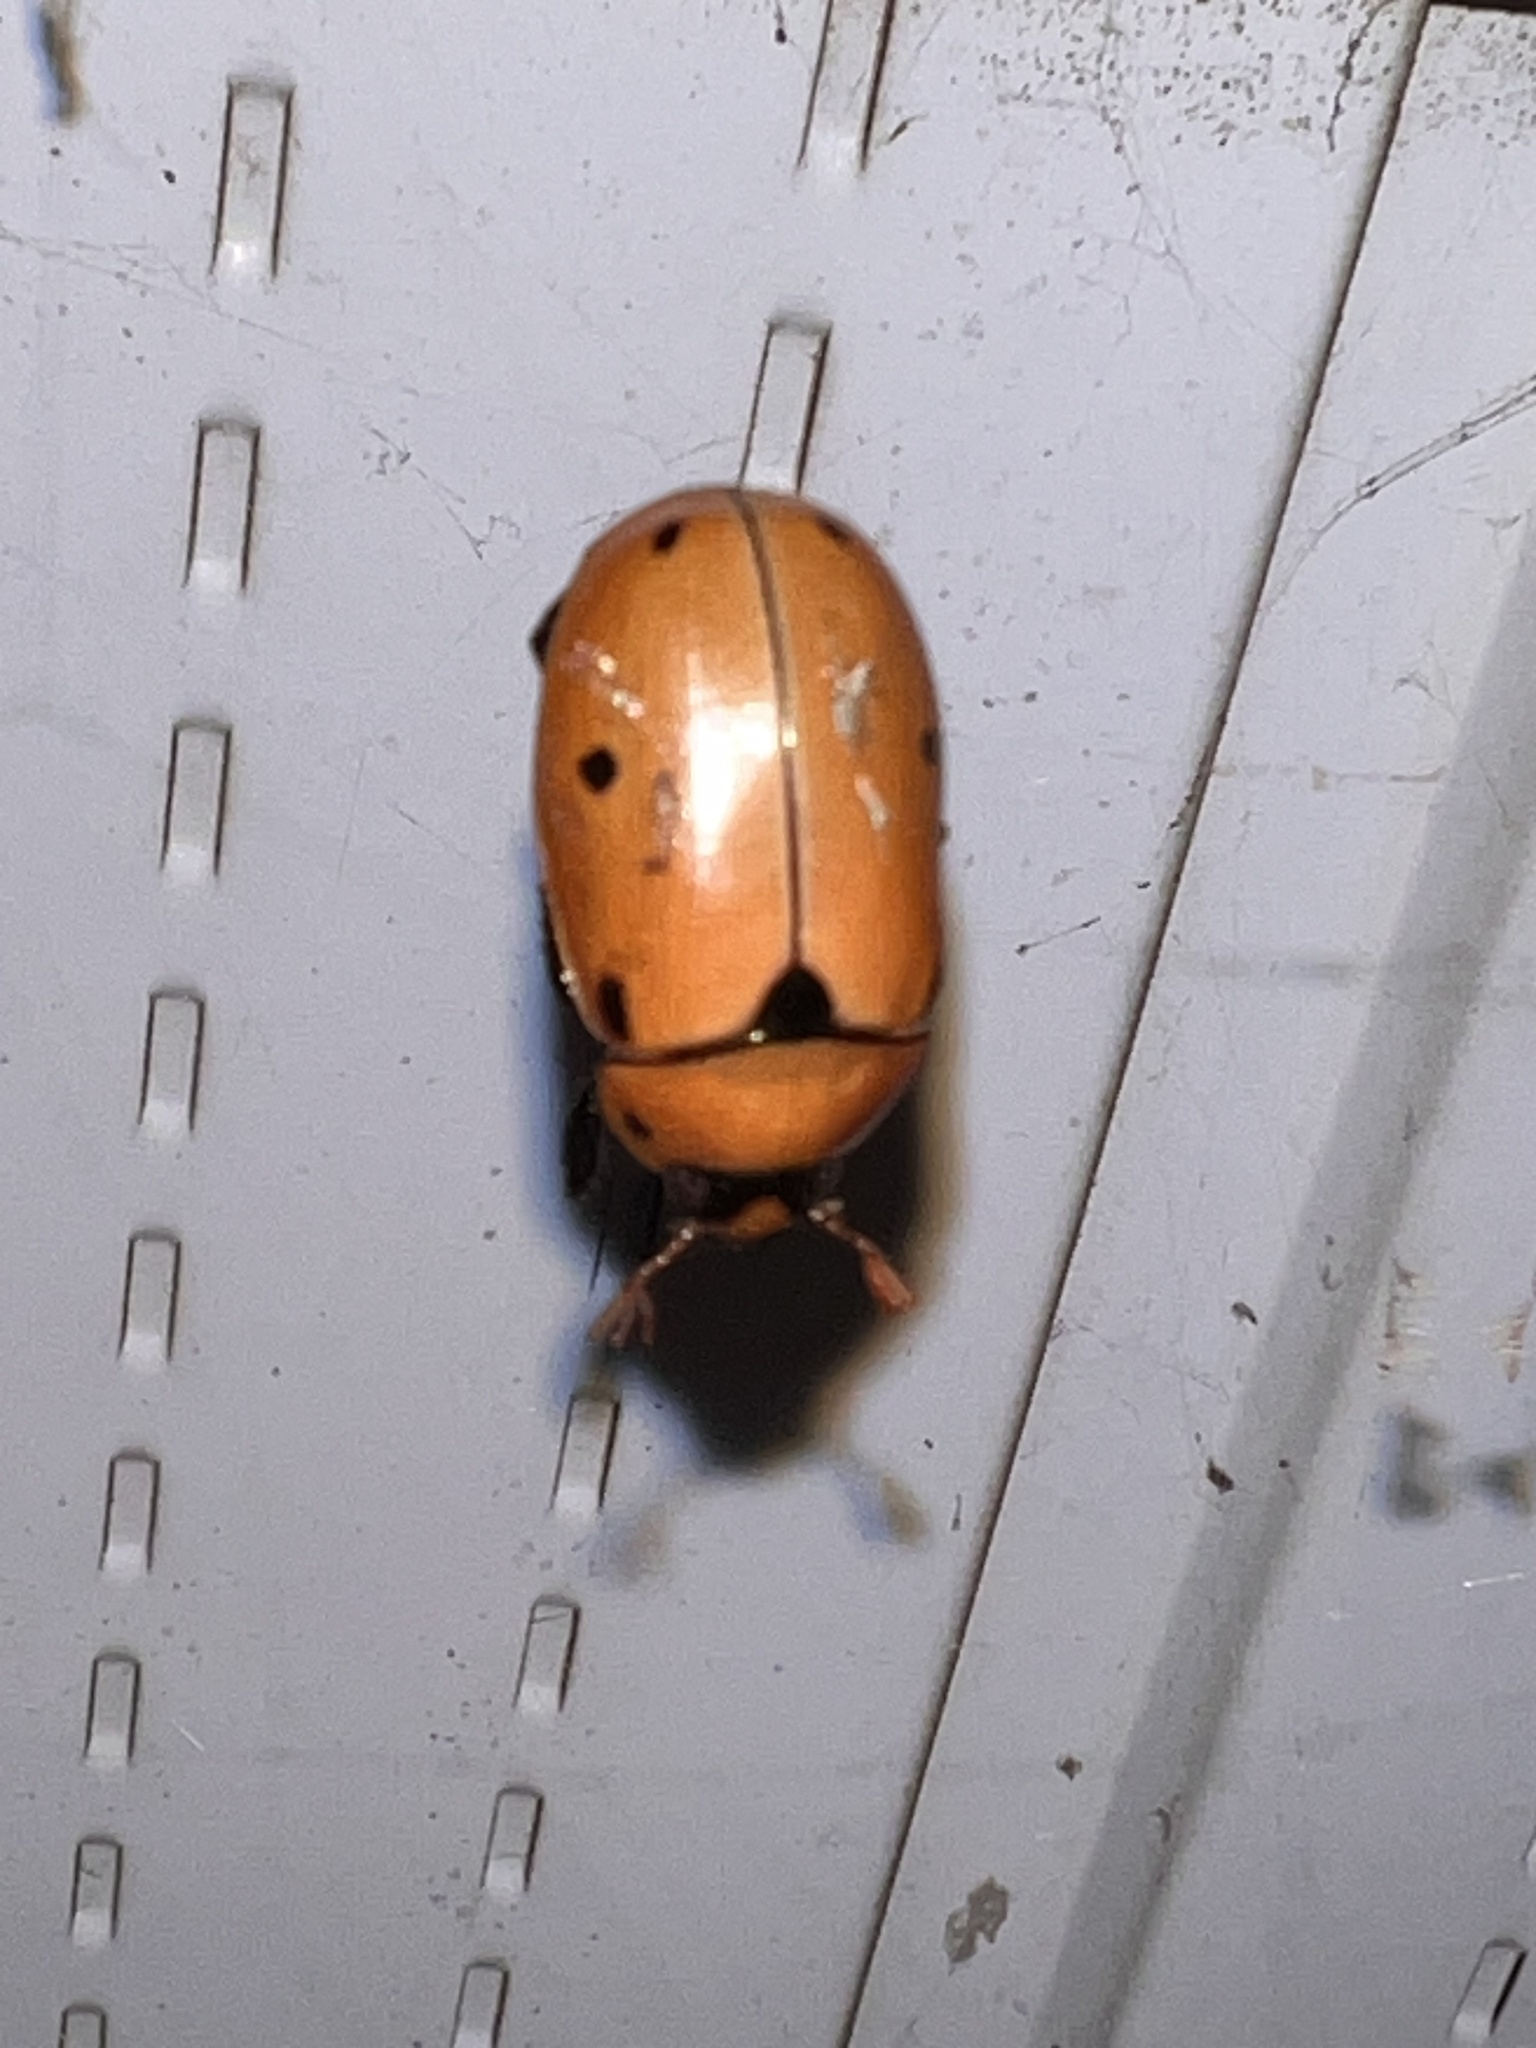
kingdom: Animalia
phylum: Arthropoda
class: Insecta
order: Coleoptera
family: Scarabaeidae
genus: Pelidnota
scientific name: Pelidnota punctata
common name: Grapevine beetle
